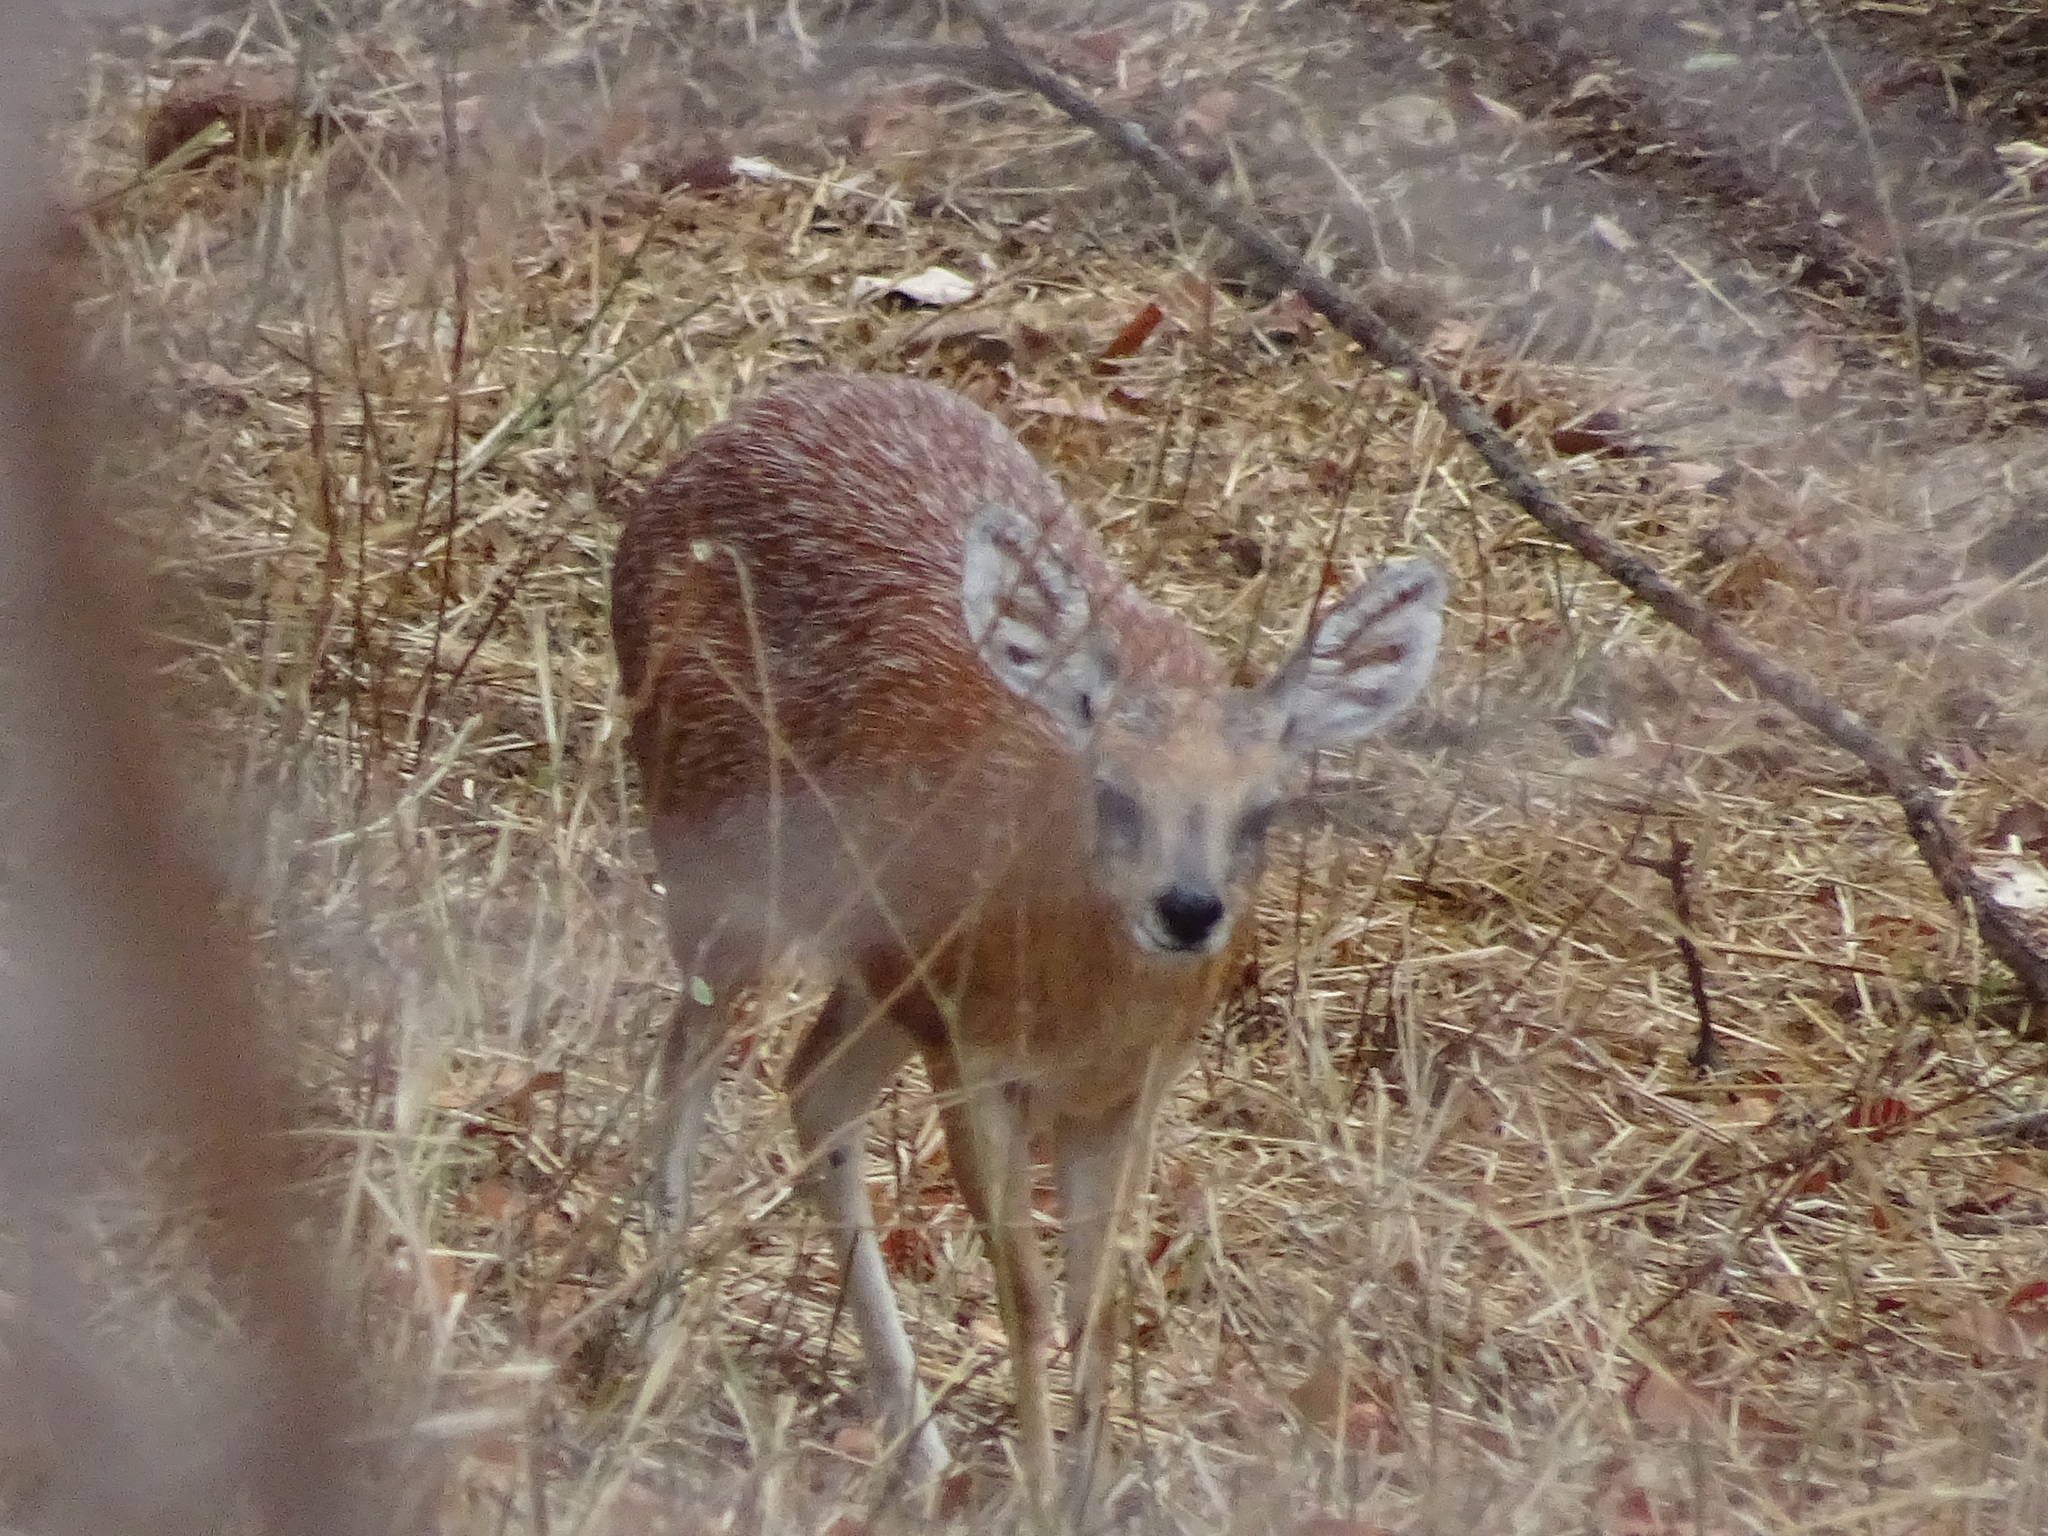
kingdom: Animalia
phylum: Chordata
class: Mammalia
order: Artiodactyla
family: Bovidae
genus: Raphicerus
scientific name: Raphicerus sharpei
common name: Sharpe's grysbok
